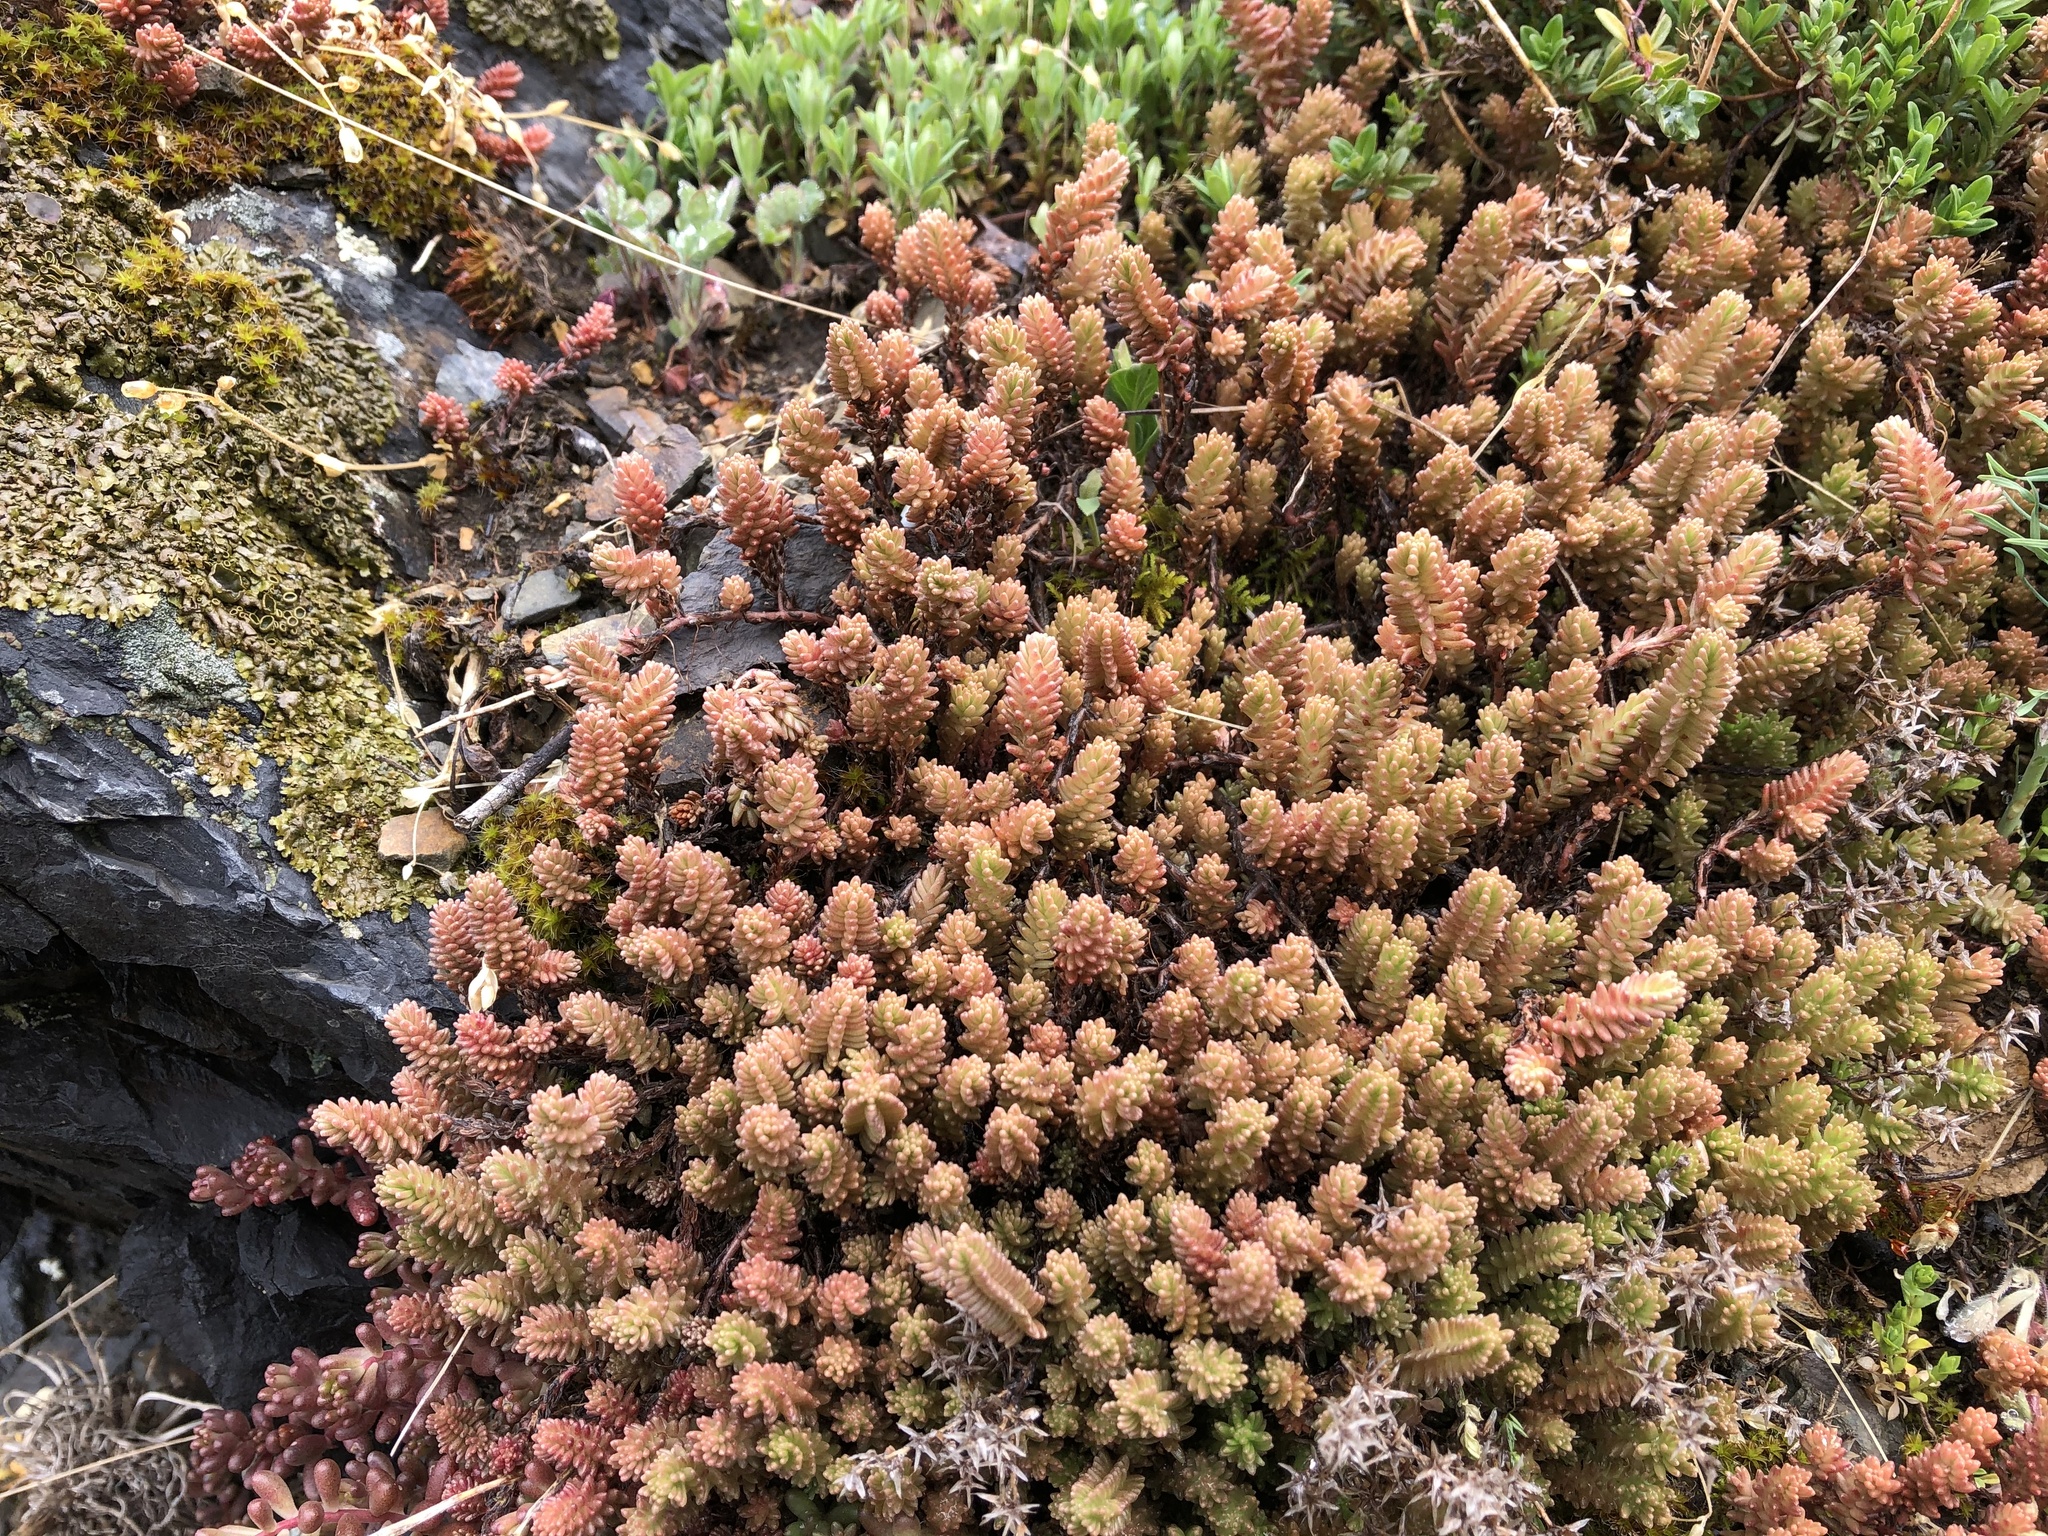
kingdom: Plantae
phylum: Tracheophyta
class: Magnoliopsida
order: Saxifragales
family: Crassulaceae
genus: Sedum
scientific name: Sedum sexangulare
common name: Tasteless stonecrop
